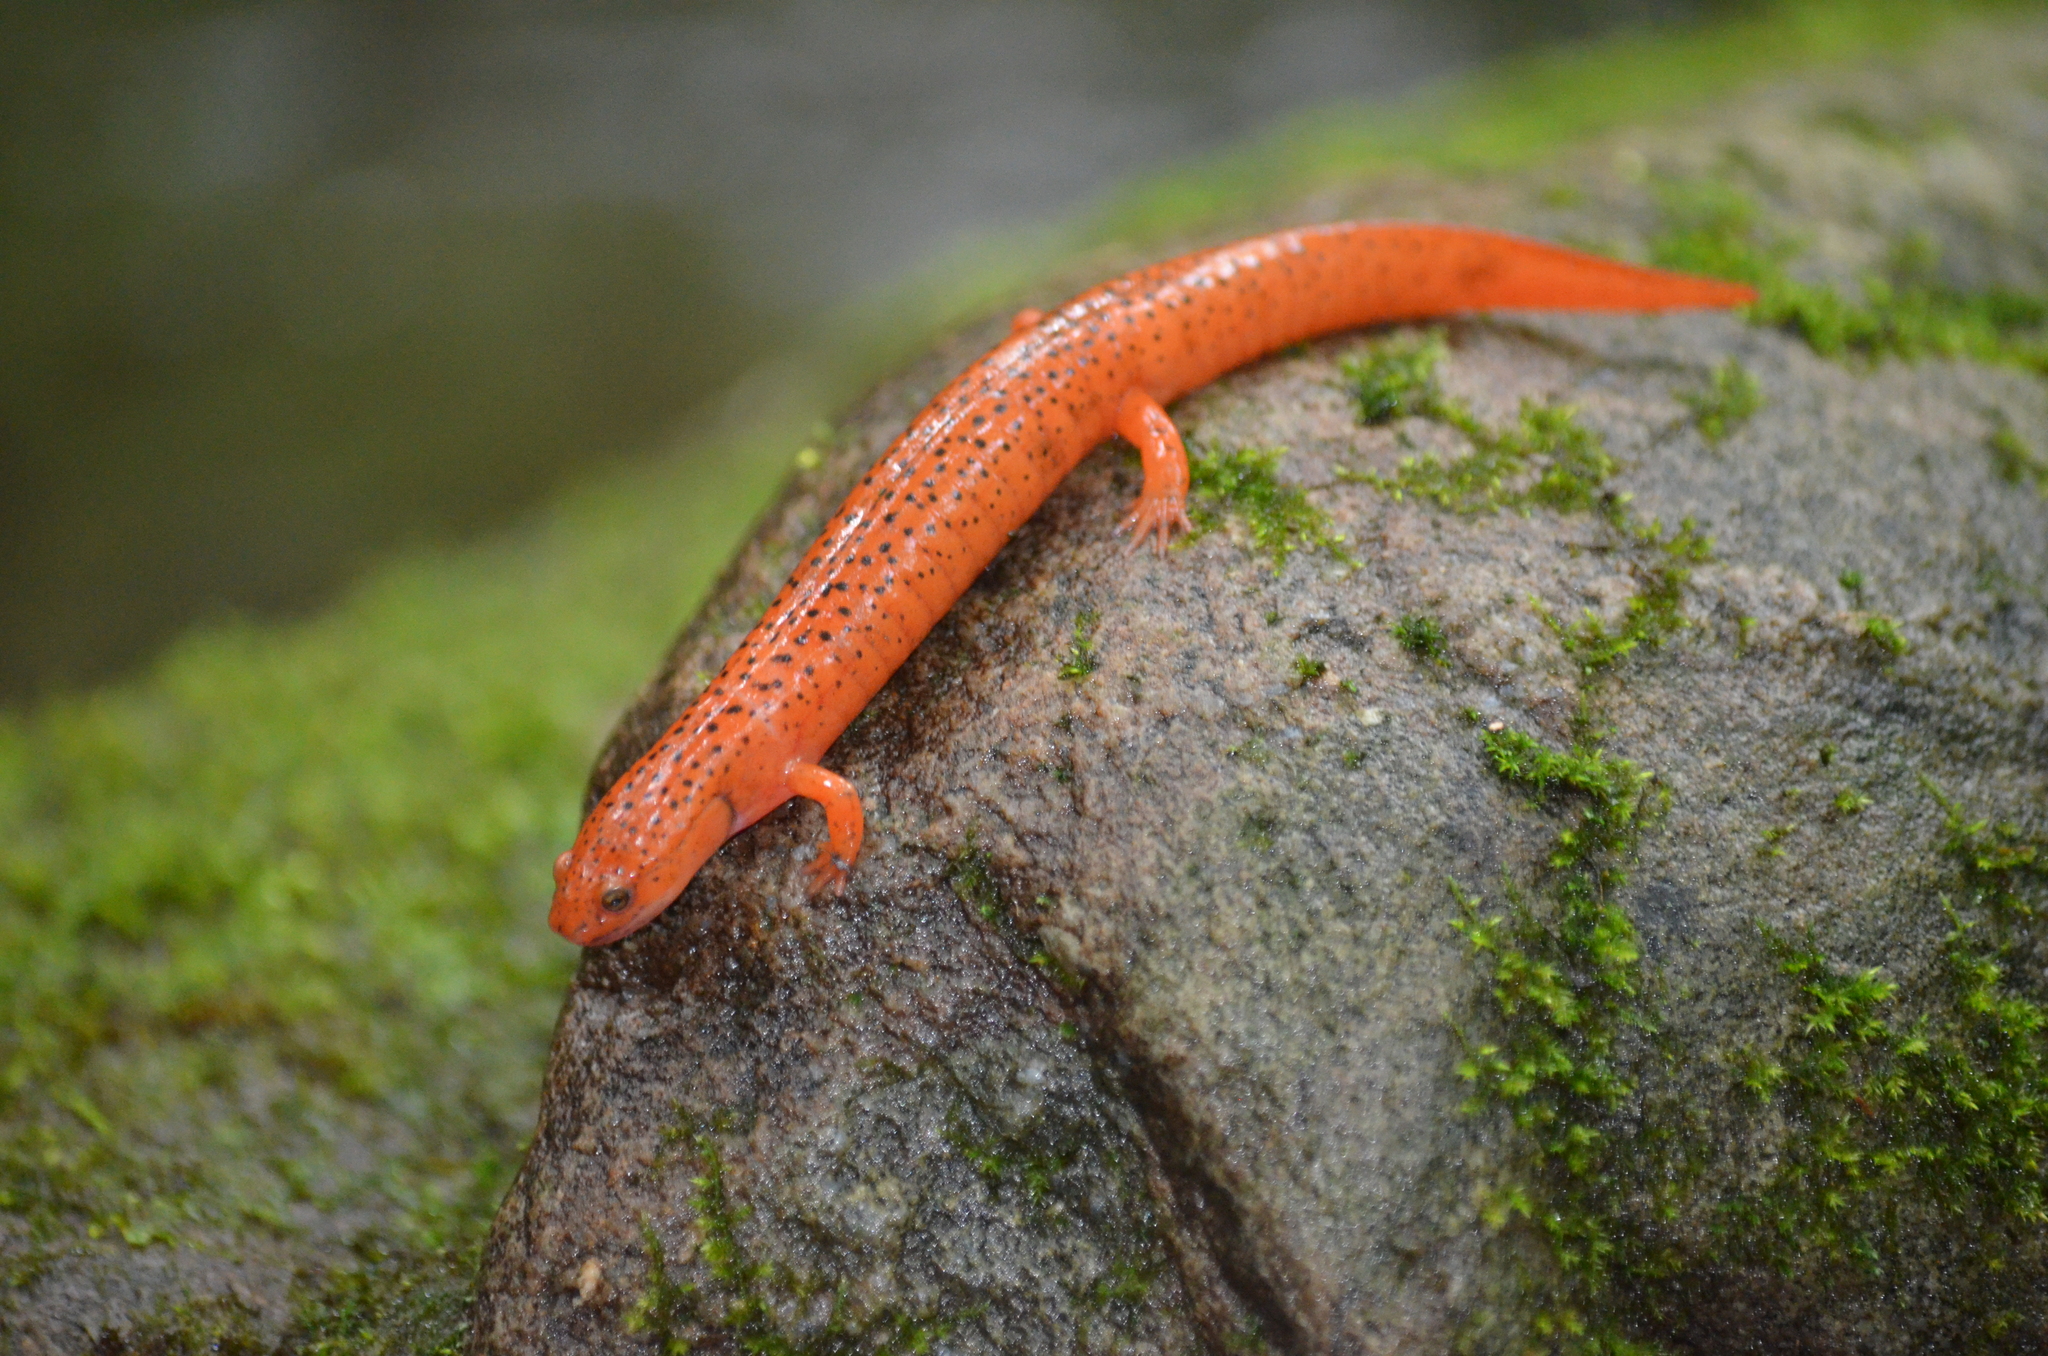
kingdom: Animalia
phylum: Chordata
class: Amphibia
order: Caudata
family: Plethodontidae
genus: Pseudotriton
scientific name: Pseudotriton ruber
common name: Red salamander
